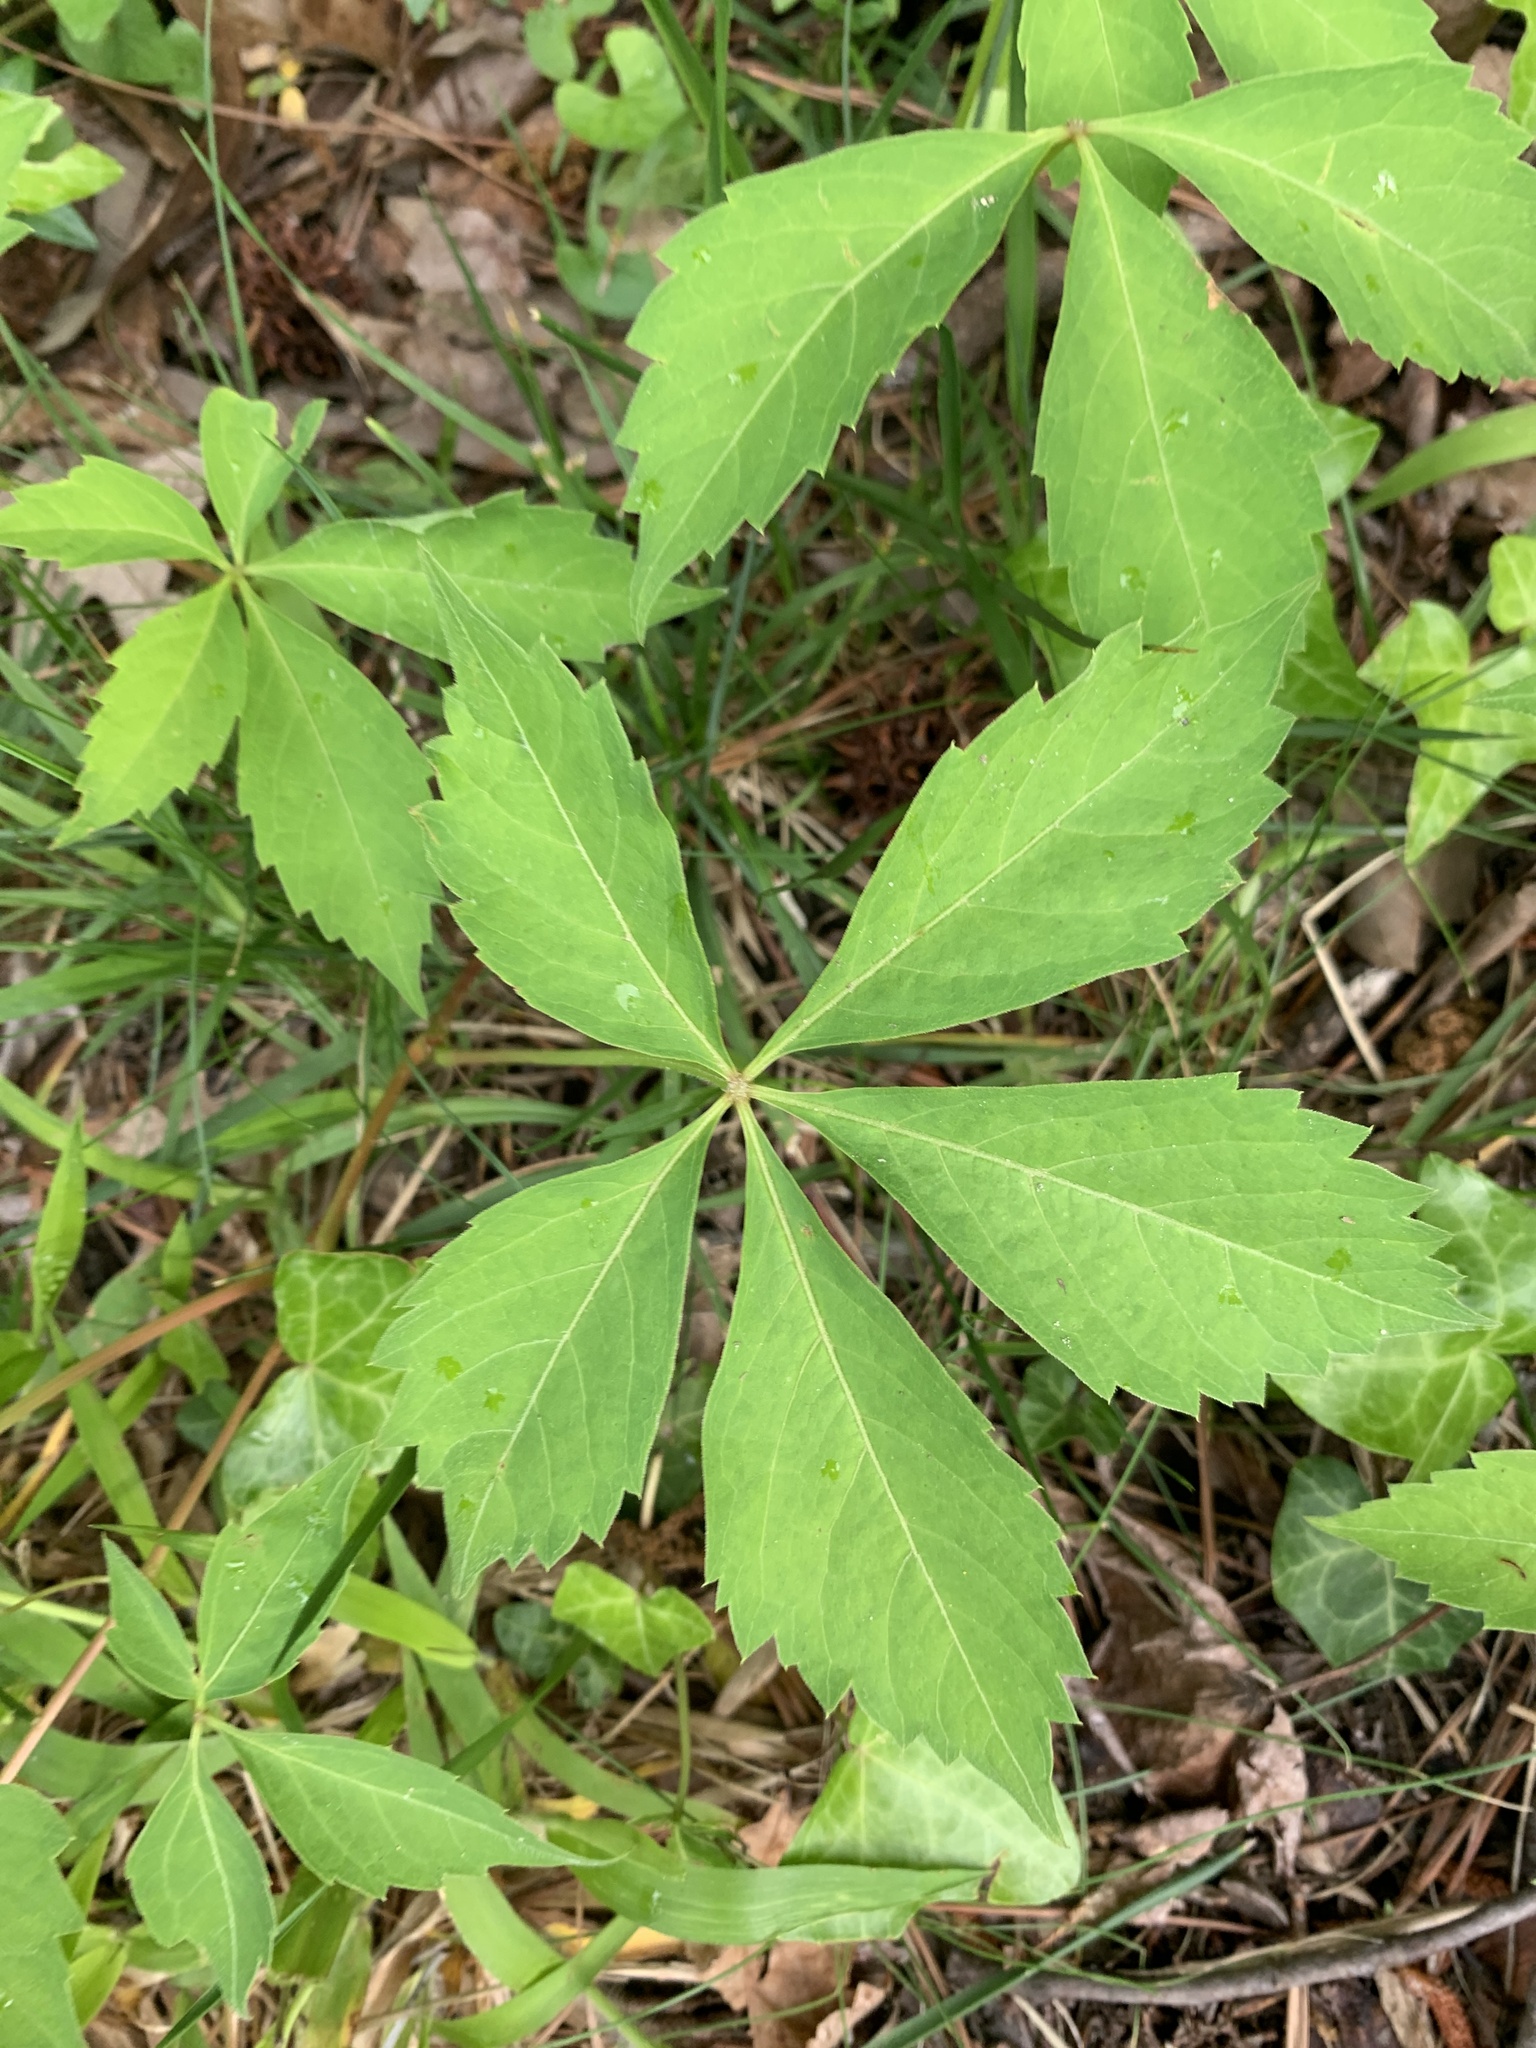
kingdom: Plantae
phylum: Tracheophyta
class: Magnoliopsida
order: Vitales
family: Vitaceae
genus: Parthenocissus
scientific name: Parthenocissus quinquefolia
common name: Virginia-creeper
